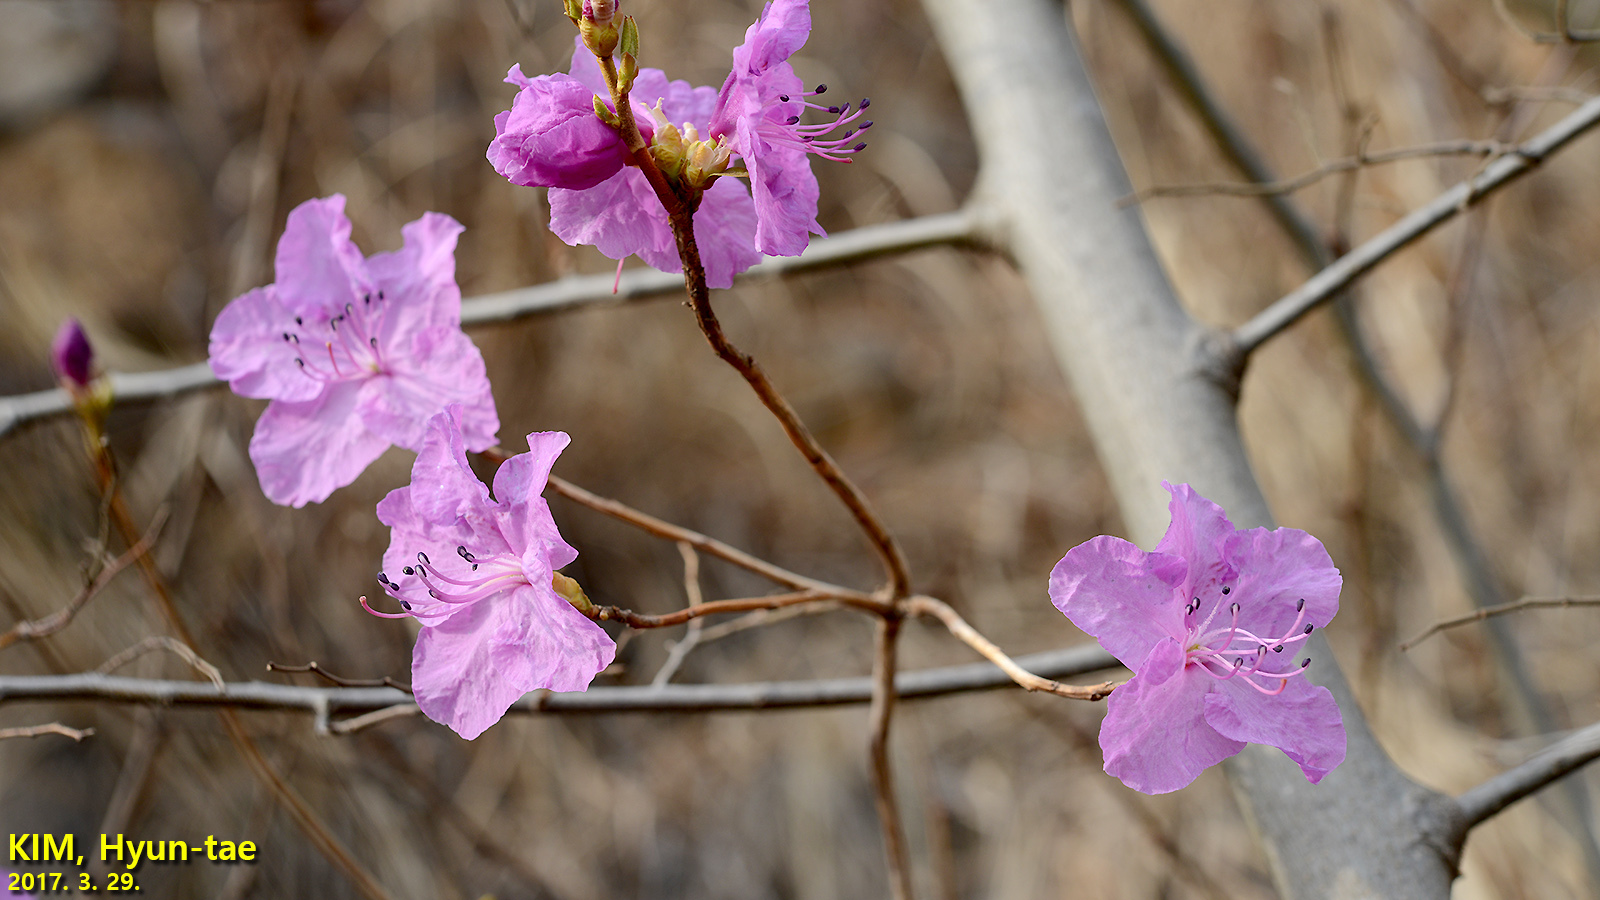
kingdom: Plantae
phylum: Tracheophyta
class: Magnoliopsida
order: Ericales
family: Ericaceae
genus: Rhododendron
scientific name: Rhododendron mucronulatum
